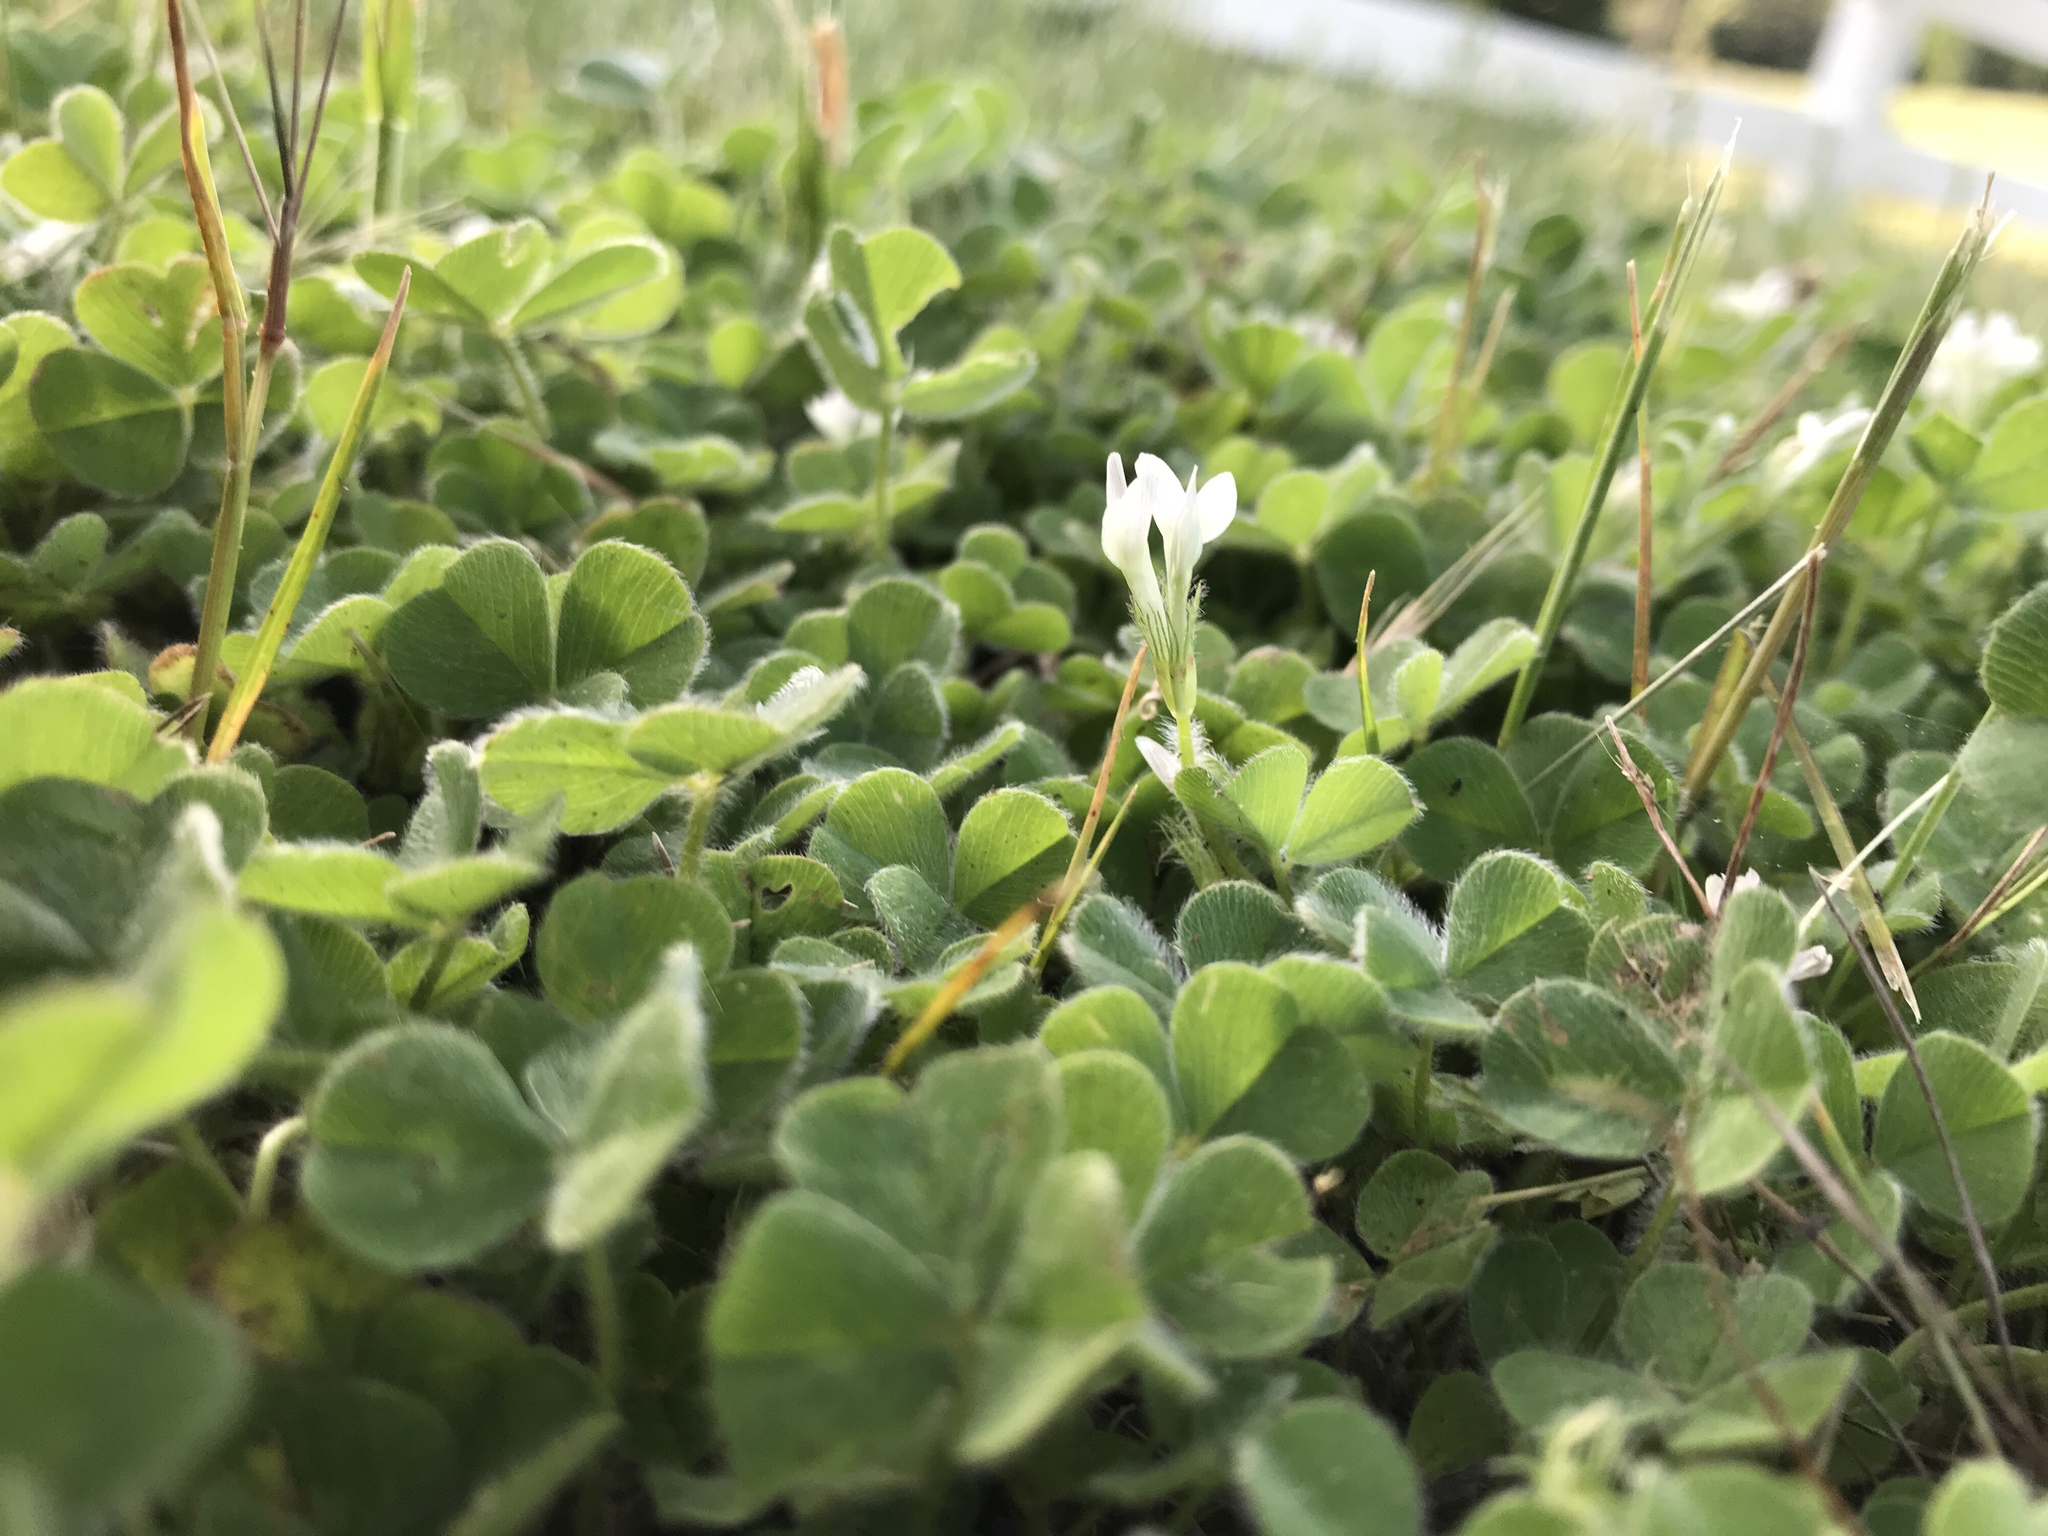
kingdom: Plantae
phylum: Tracheophyta
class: Magnoliopsida
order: Fabales
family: Fabaceae
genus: Trifolium
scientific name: Trifolium subterraneum
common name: Subterranean clover
